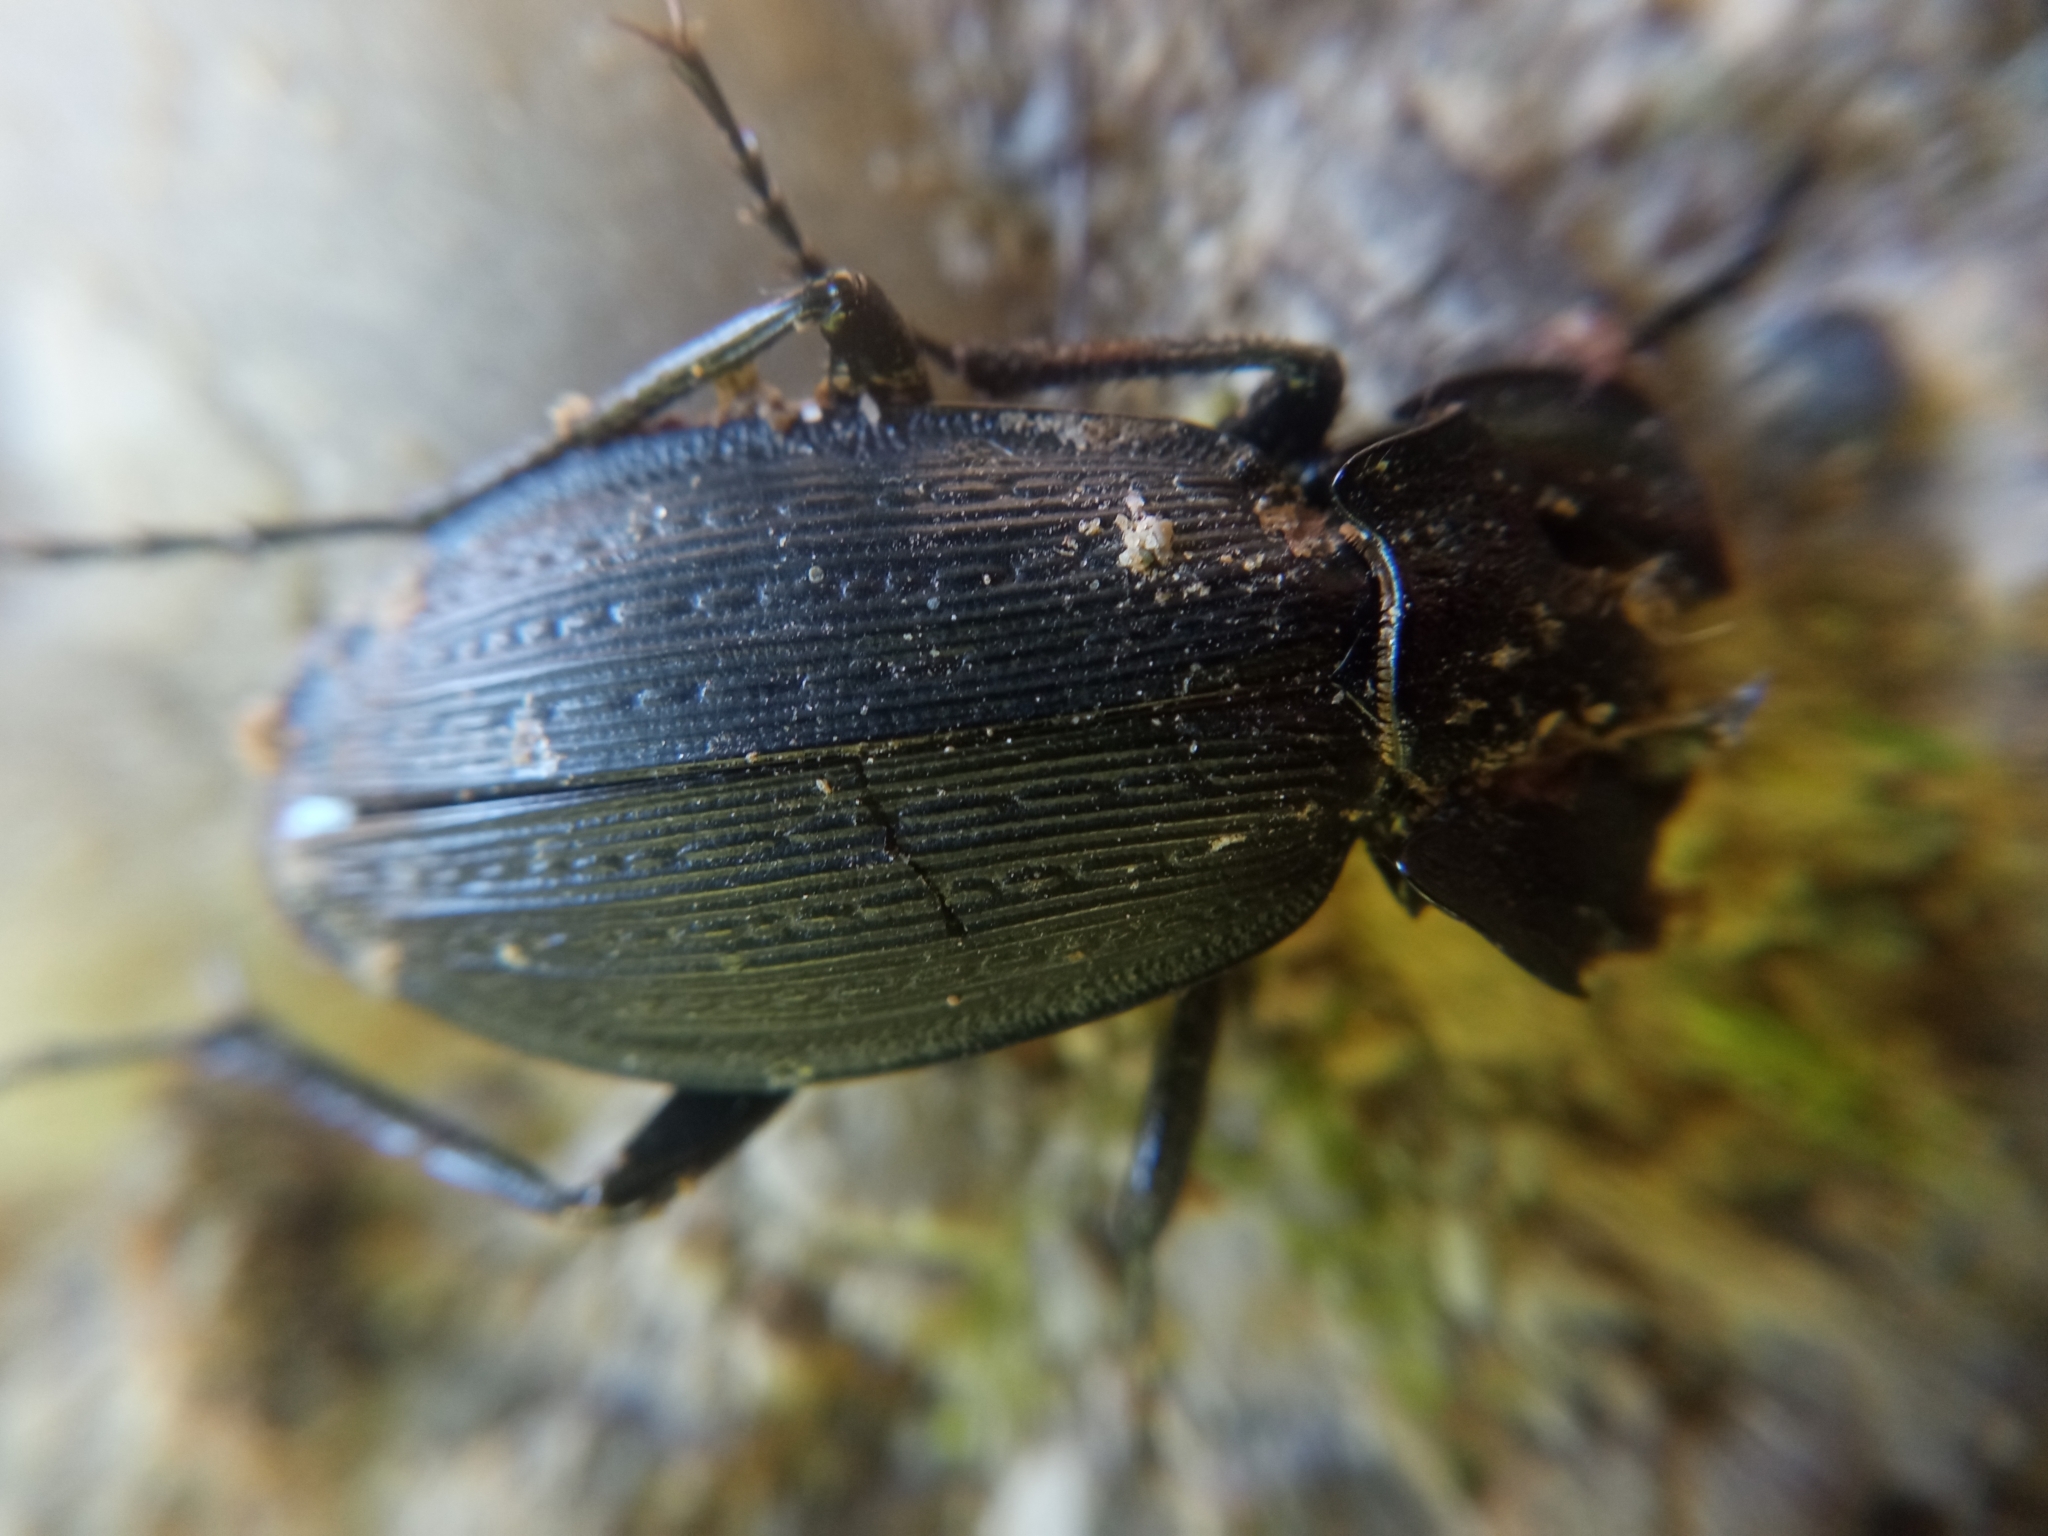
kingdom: Animalia
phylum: Arthropoda
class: Insecta
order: Coleoptera
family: Carabidae
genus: Carabus
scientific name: Carabus monilis
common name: Necklace ground beetle
